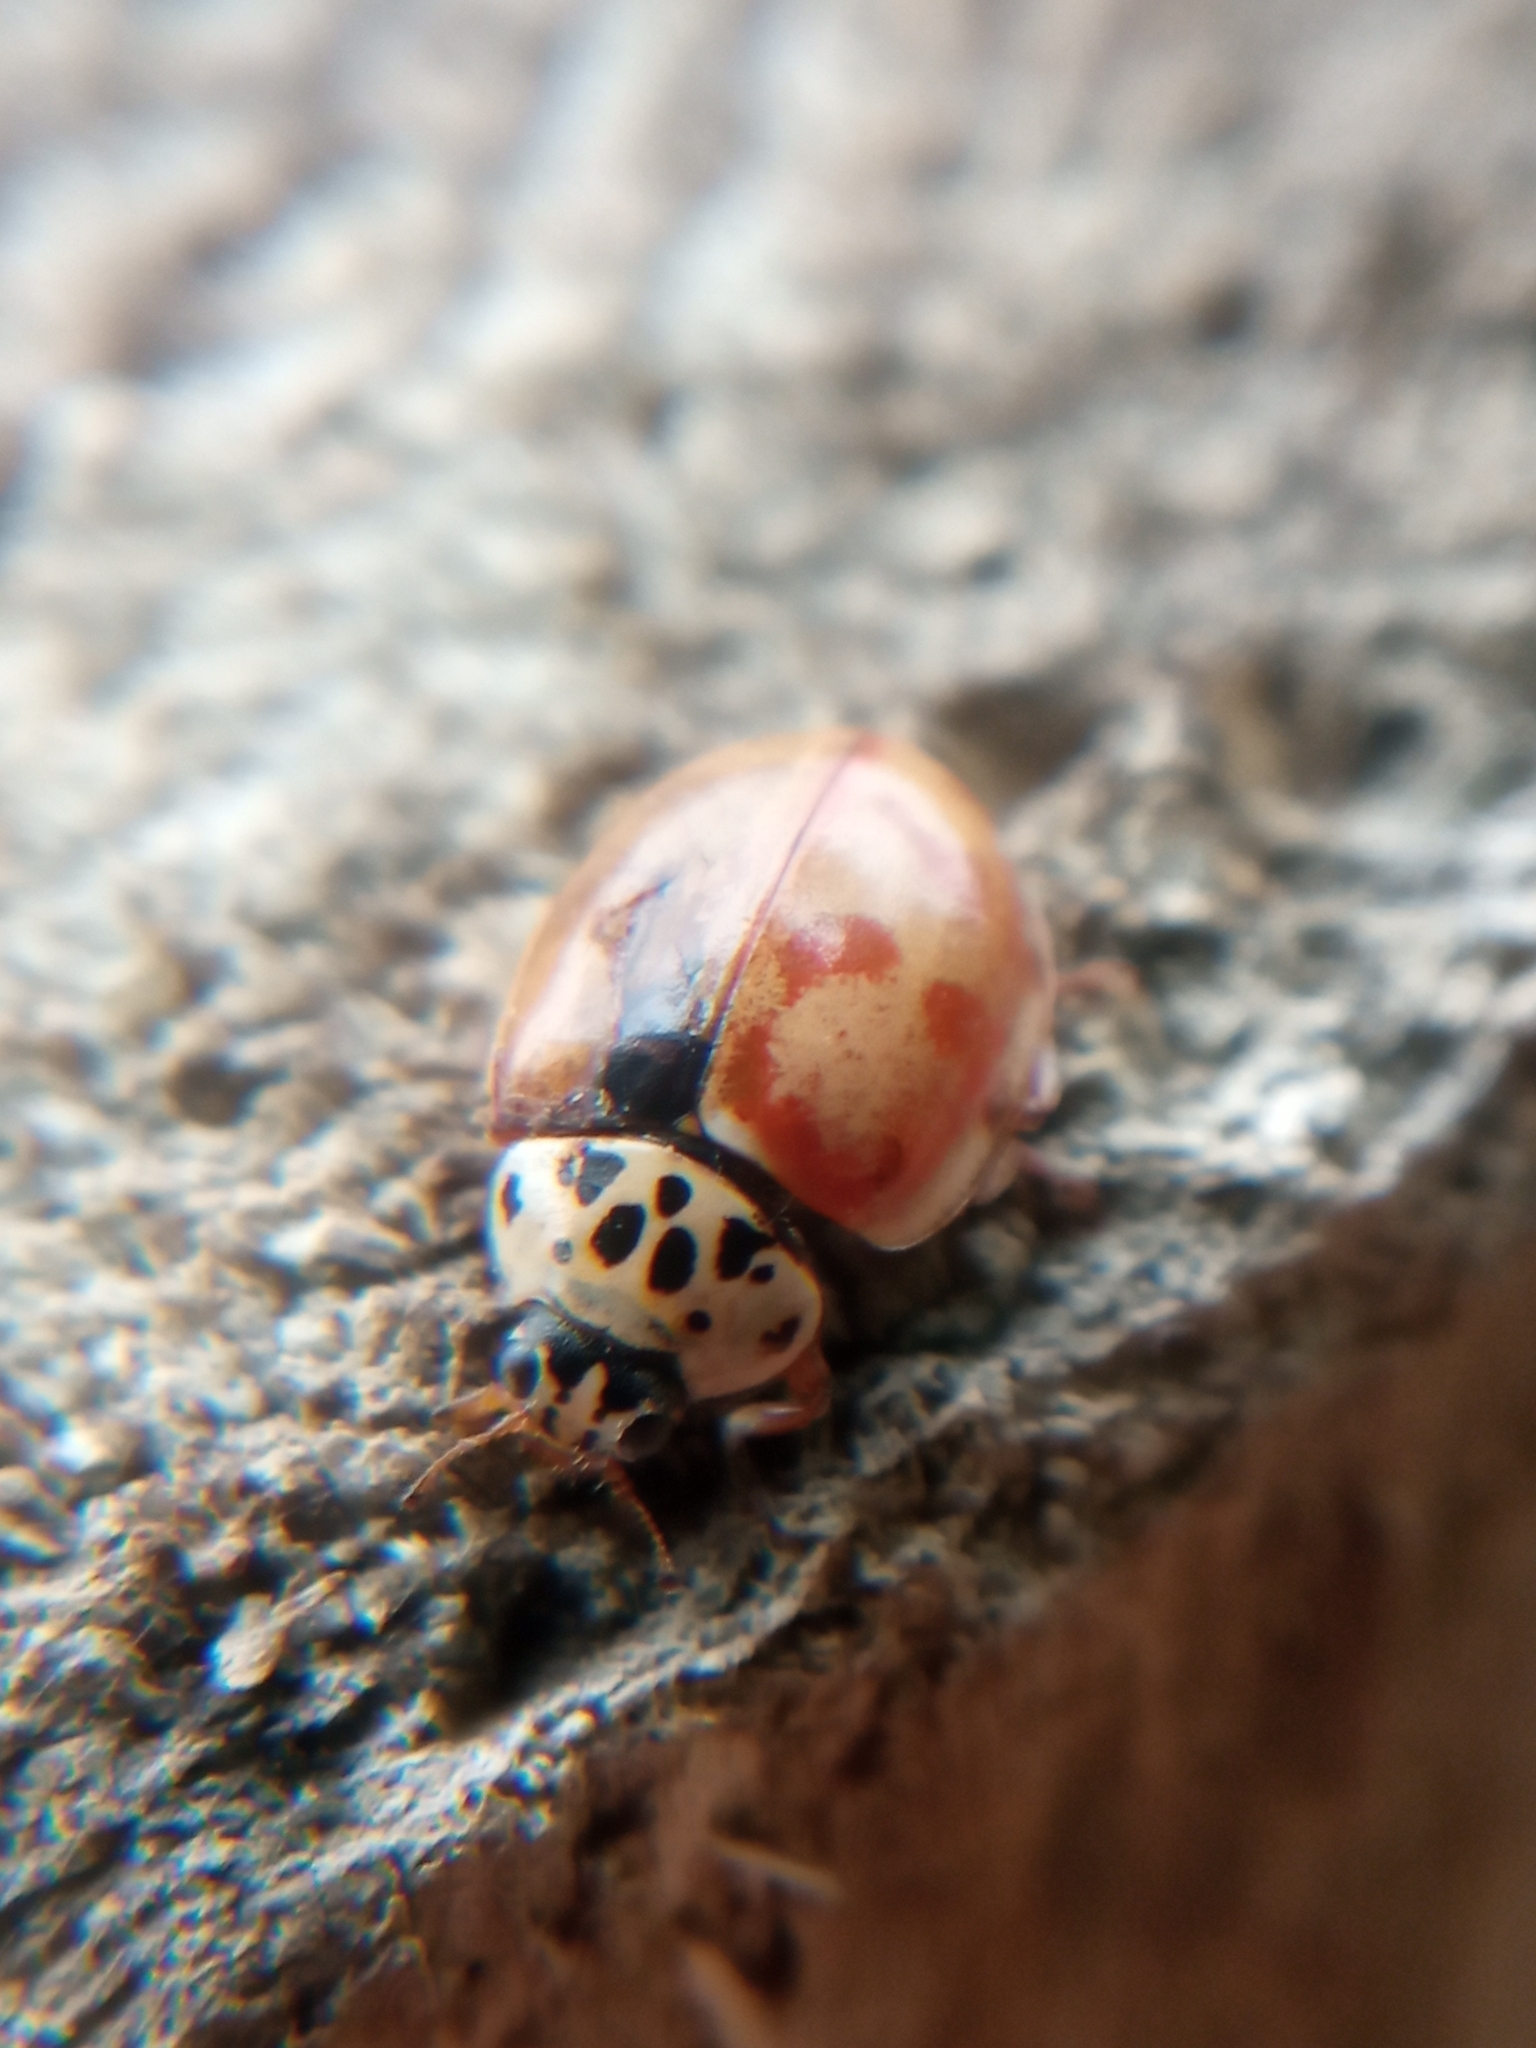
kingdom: Animalia
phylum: Arthropoda
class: Insecta
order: Coleoptera
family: Coccinellidae
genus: Harmonia
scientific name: Harmonia quadripunctata
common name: Cream-streaked ladybird
